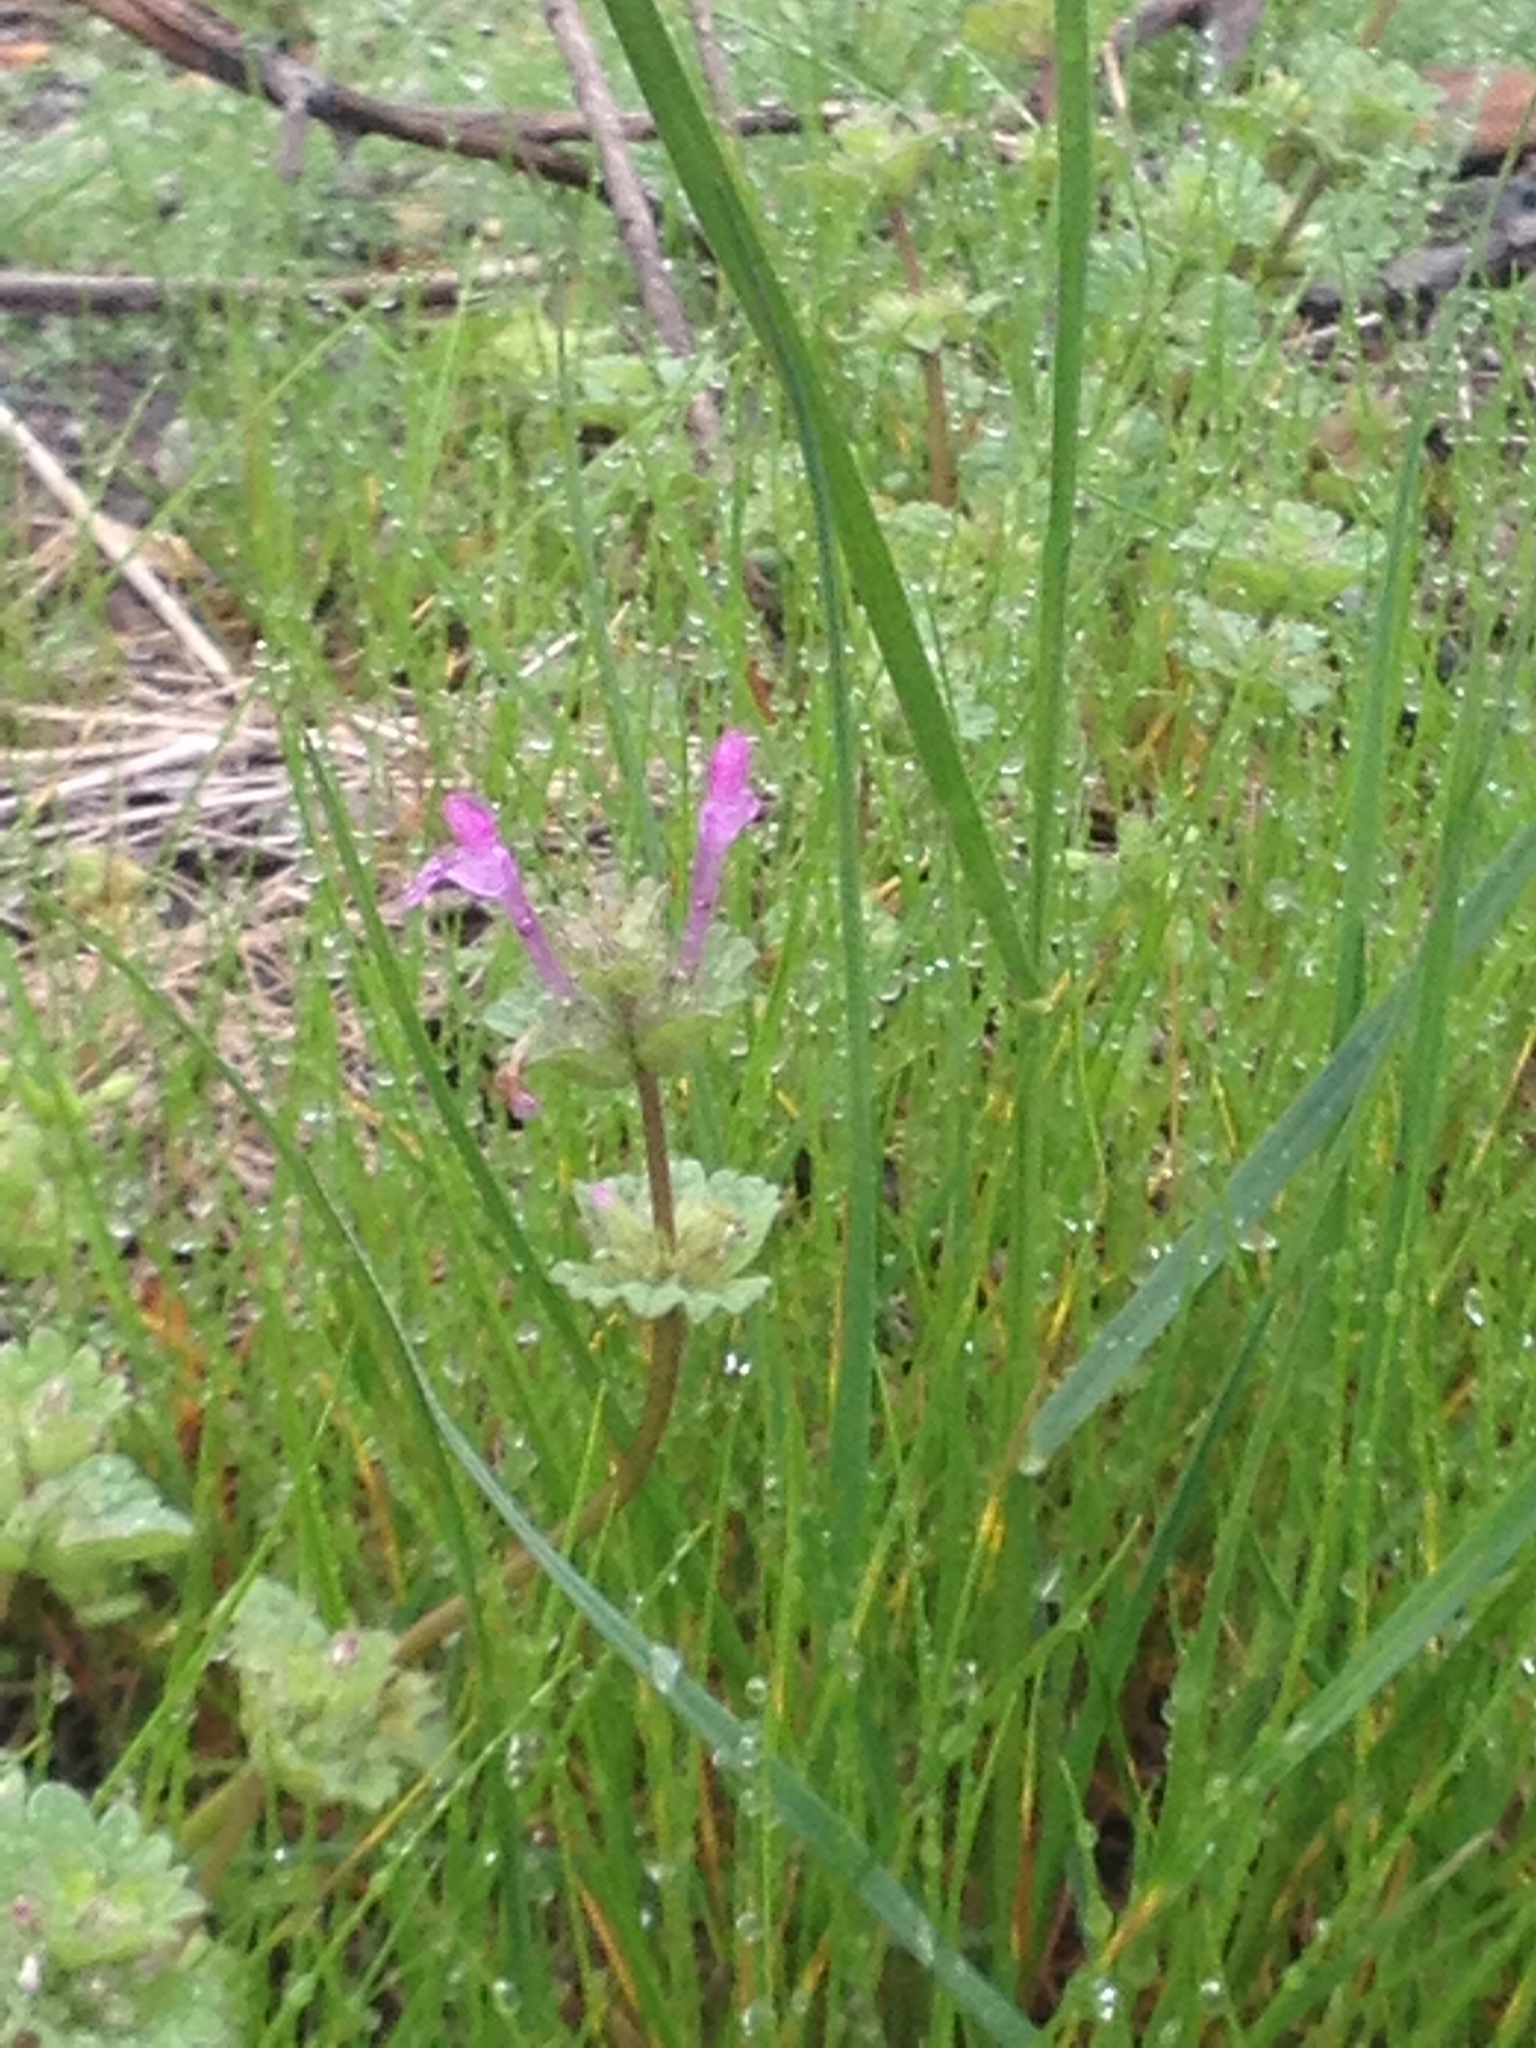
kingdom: Plantae
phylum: Tracheophyta
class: Magnoliopsida
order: Lamiales
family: Lamiaceae
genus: Lamium
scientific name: Lamium amplexicaule
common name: Henbit dead-nettle
